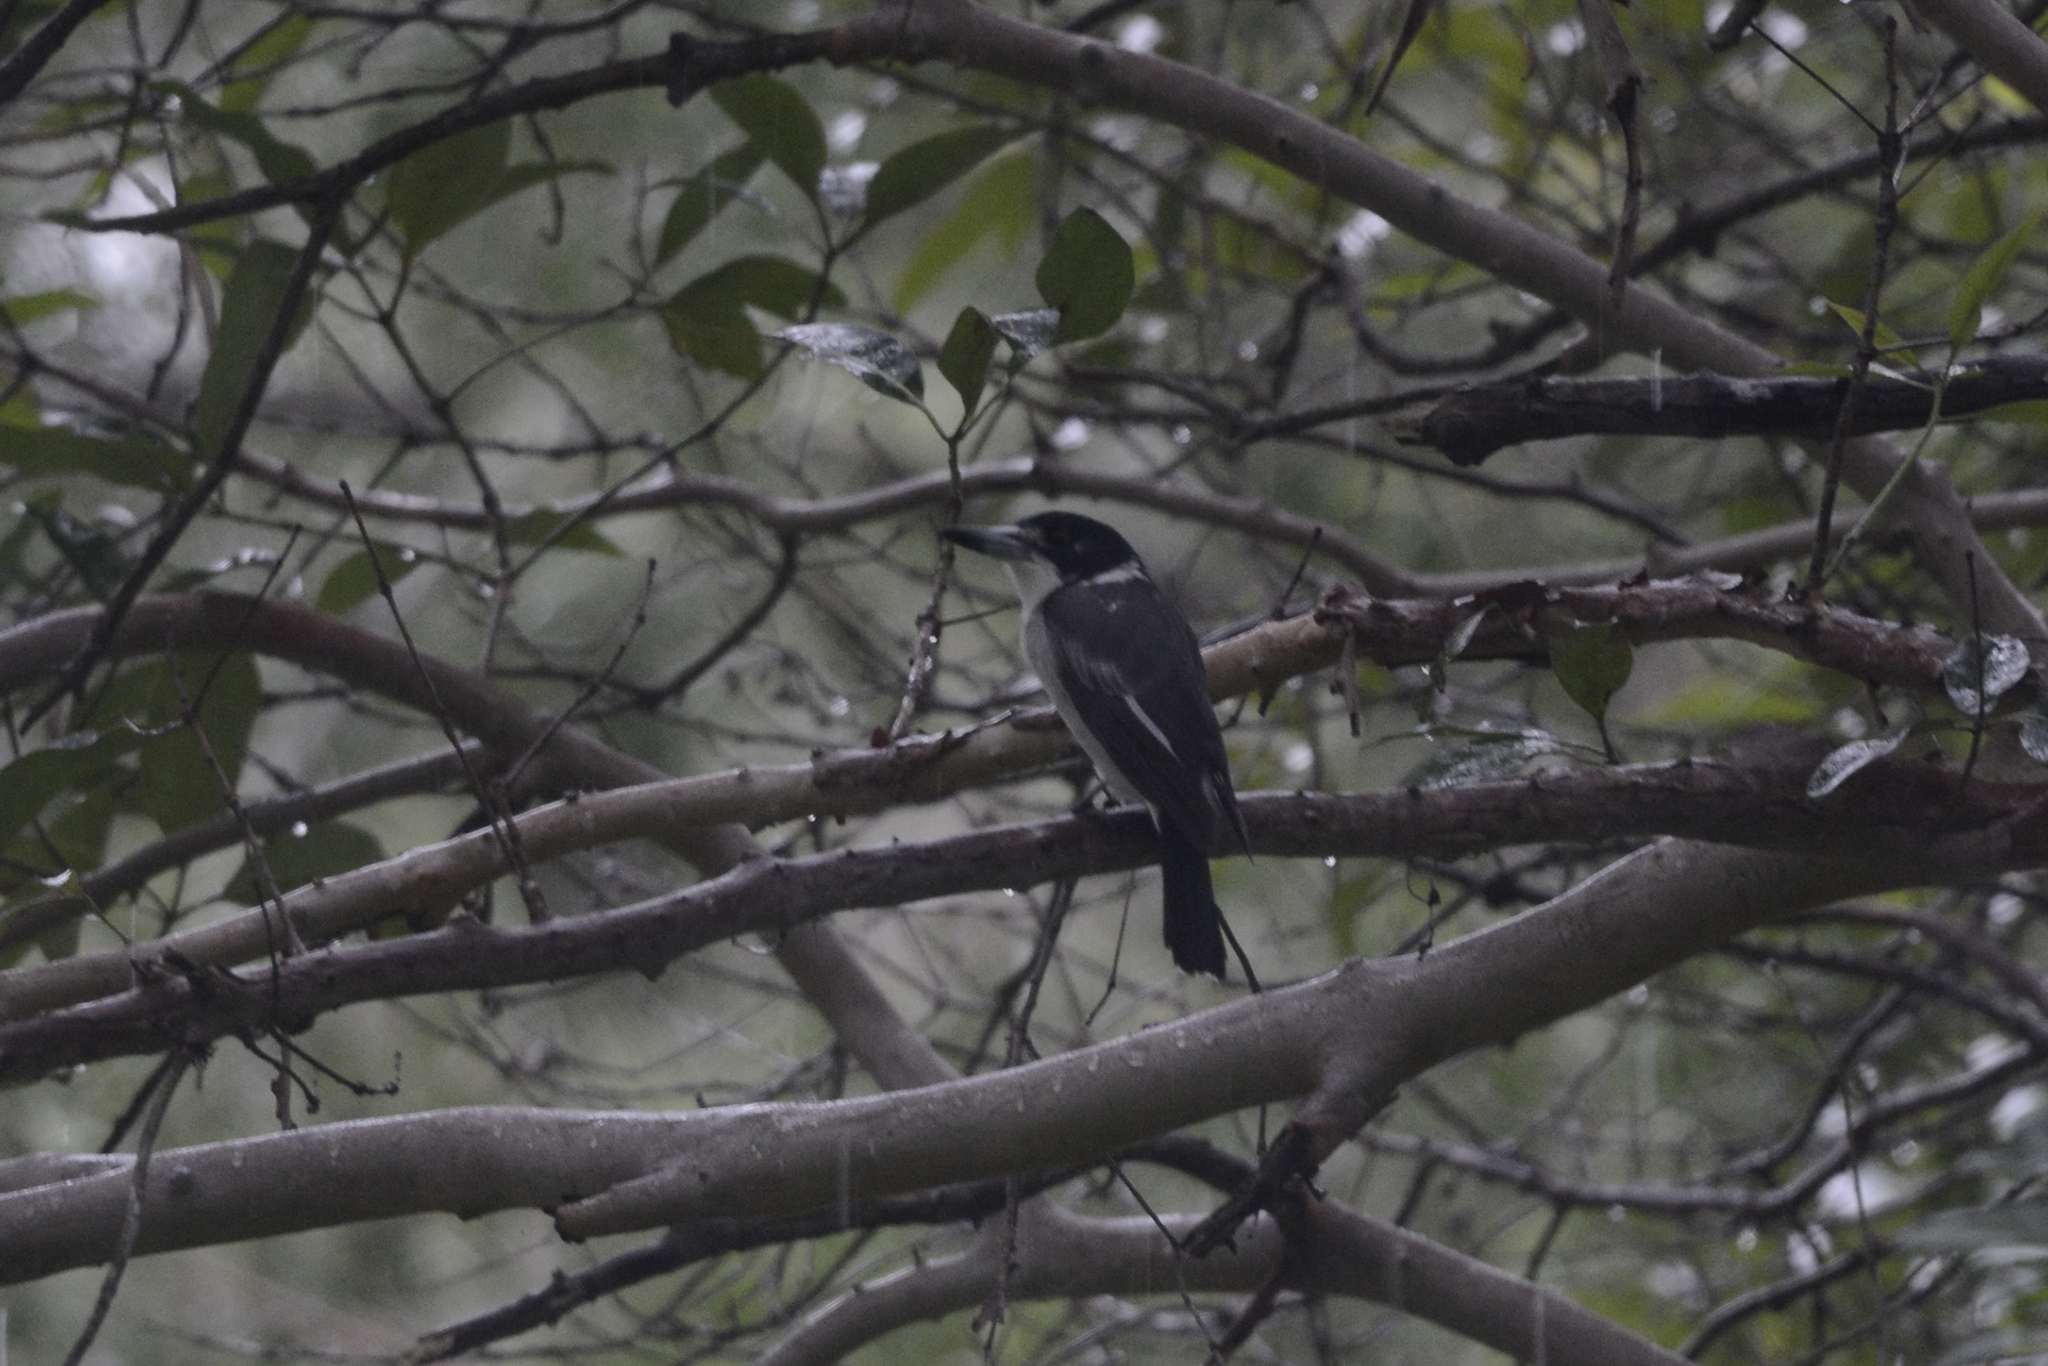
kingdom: Animalia
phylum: Chordata
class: Aves
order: Passeriformes
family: Cracticidae
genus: Cracticus
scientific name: Cracticus torquatus
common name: Grey butcherbird
